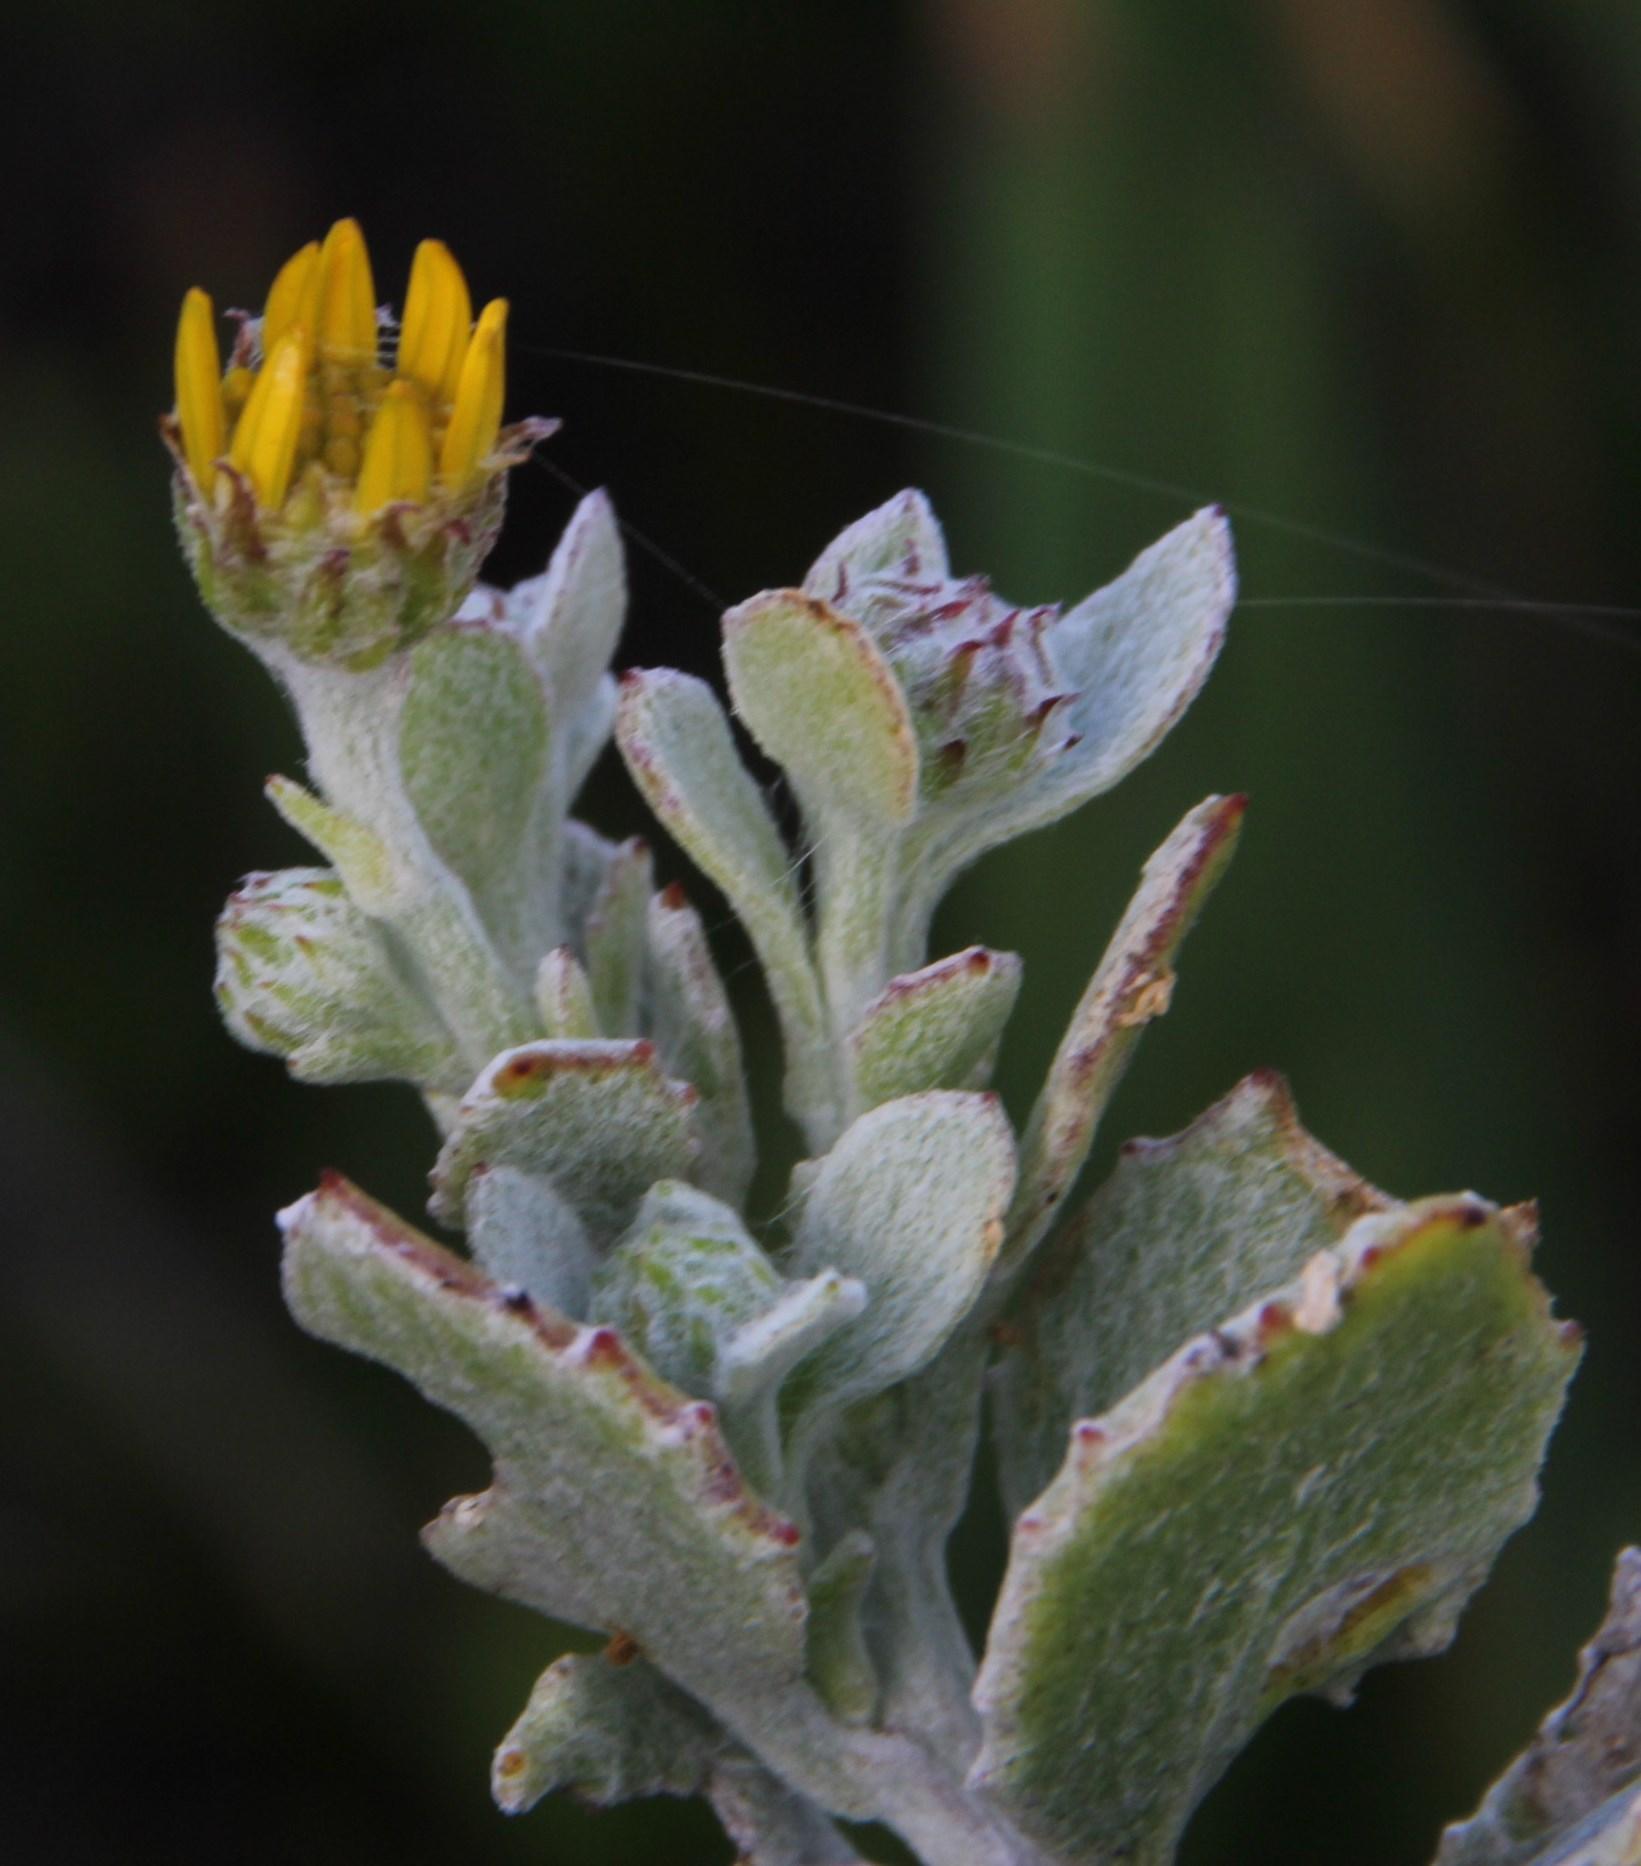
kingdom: Plantae
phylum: Tracheophyta
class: Magnoliopsida
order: Asterales
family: Asteraceae
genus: Osteospermum
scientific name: Osteospermum incanum
